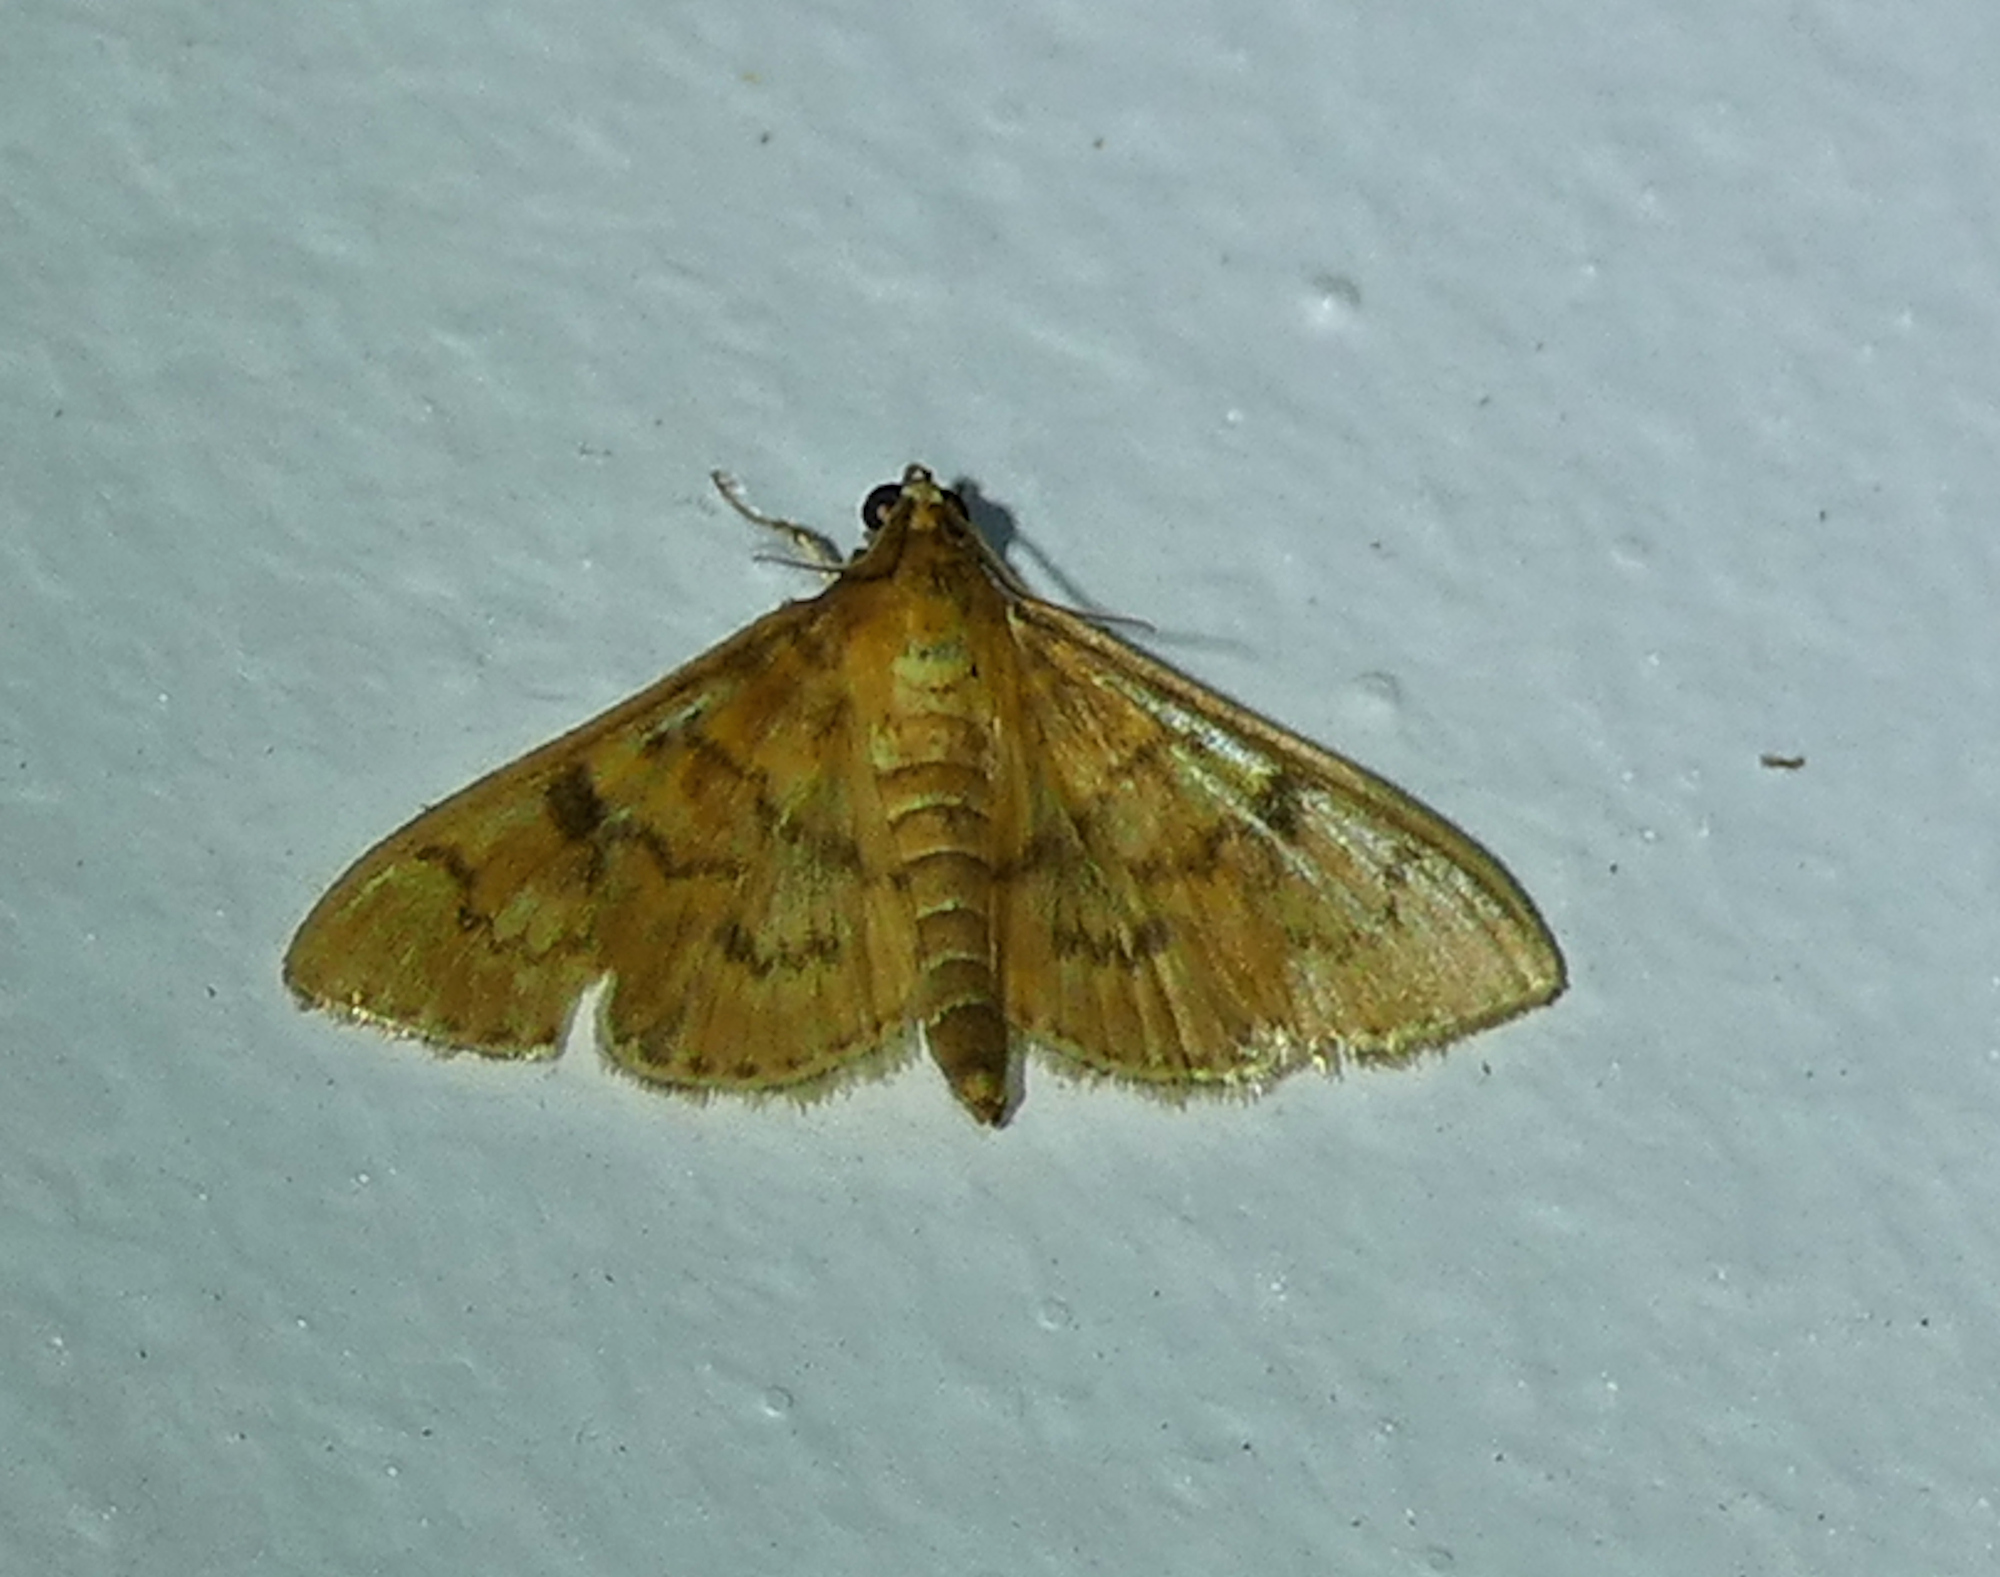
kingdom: Animalia
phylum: Arthropoda
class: Insecta
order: Lepidoptera
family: Crambidae
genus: Pilocrocis
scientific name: Pilocrocis dryalis
